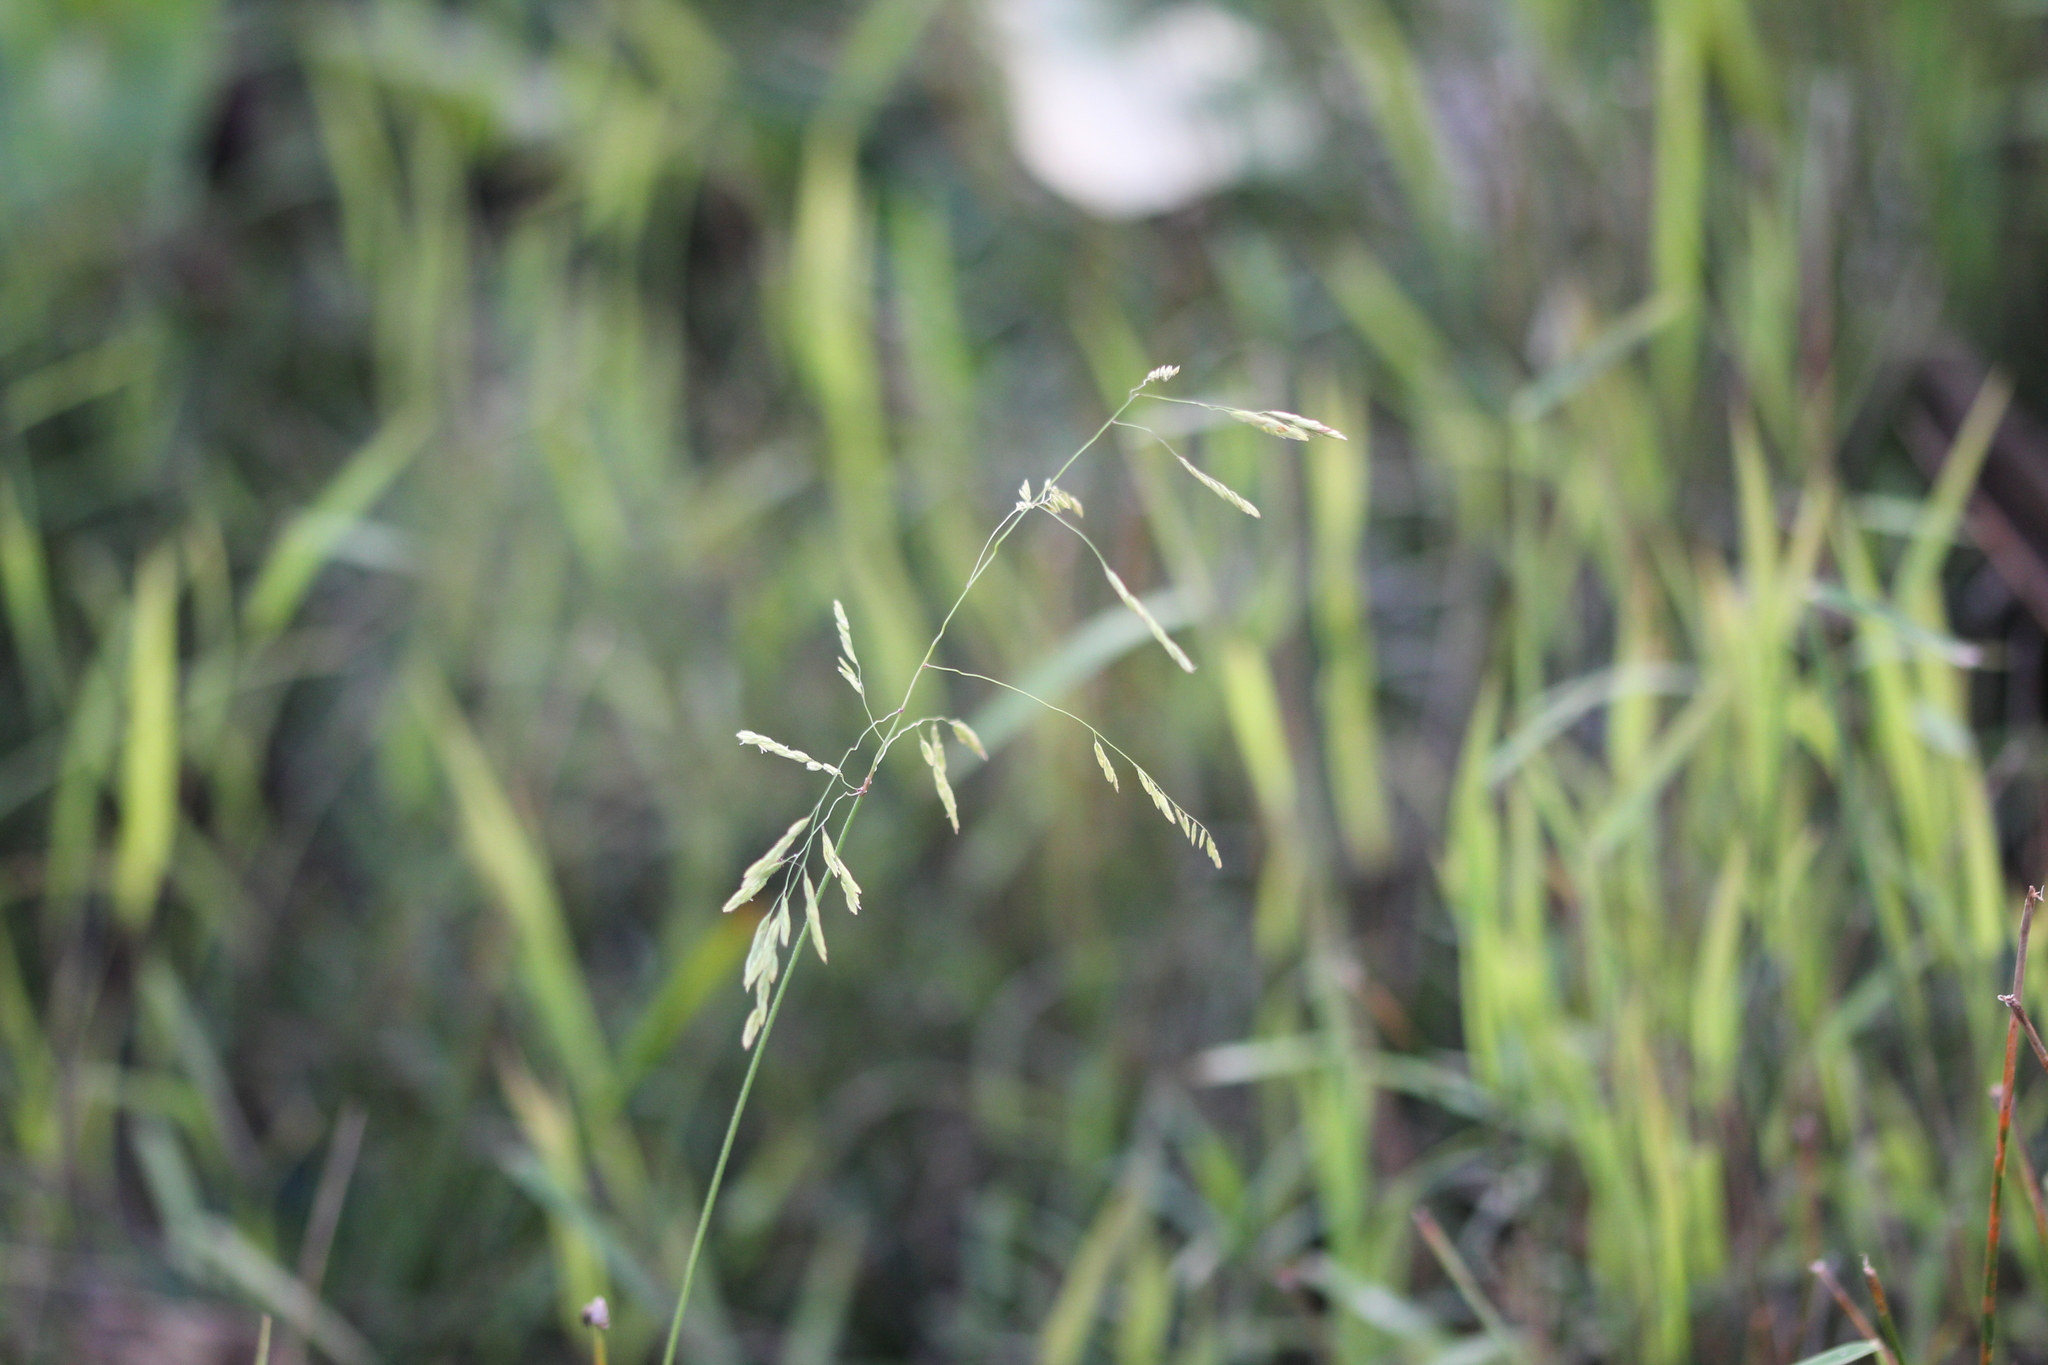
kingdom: Plantae
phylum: Tracheophyta
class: Liliopsida
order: Poales
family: Poaceae
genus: Leersia
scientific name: Leersia oryzoides
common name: Cut-grass
